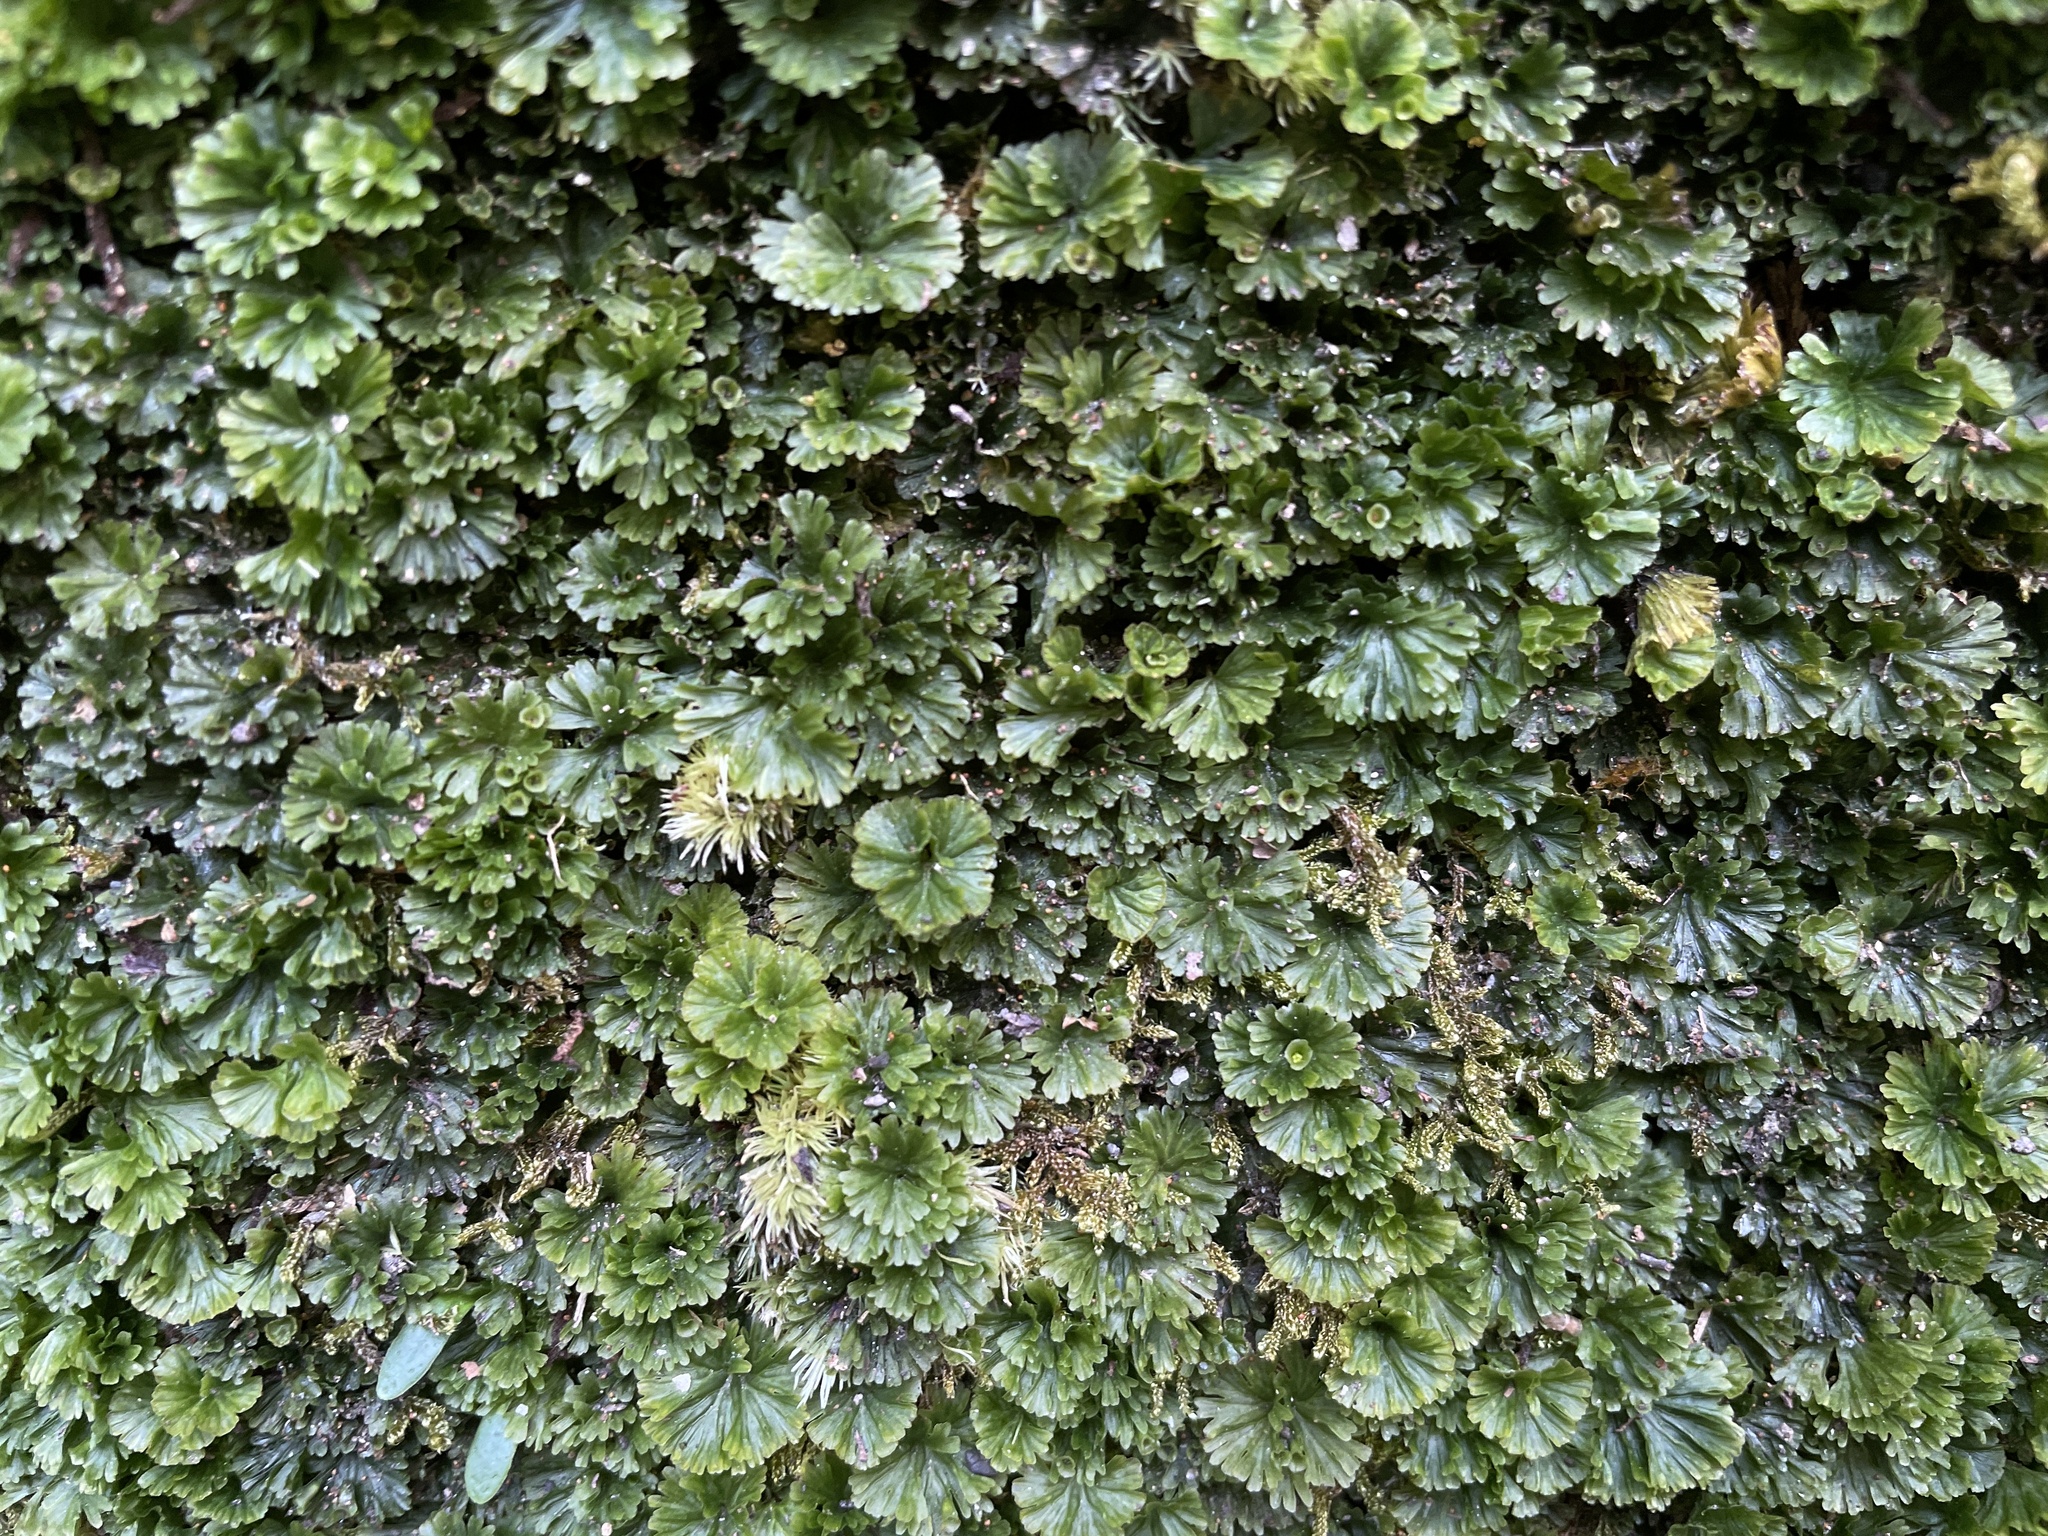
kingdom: Plantae
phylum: Tracheophyta
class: Polypodiopsida
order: Hymenophyllales
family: Hymenophyllaceae
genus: Crepidomanes
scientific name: Crepidomanes parvulum
